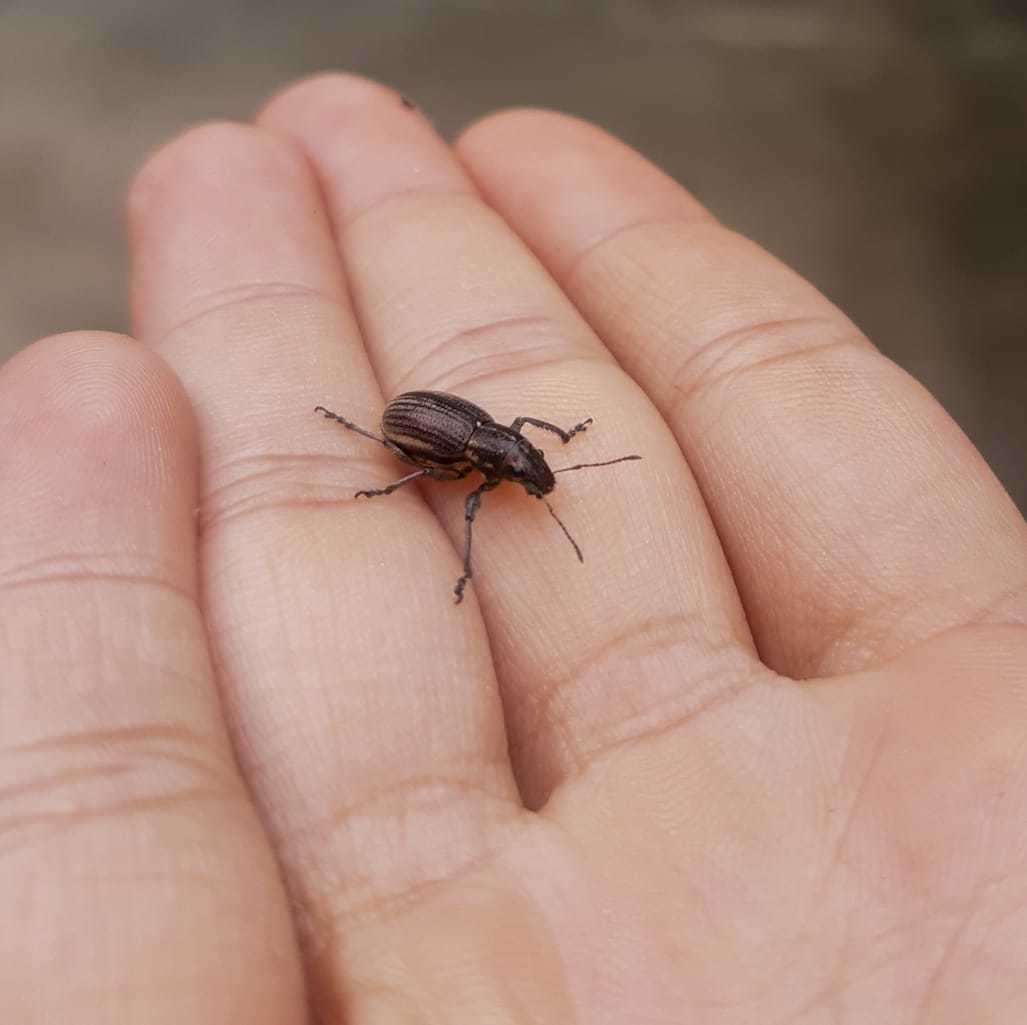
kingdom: Animalia
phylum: Arthropoda
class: Insecta
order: Coleoptera
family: Curculionidae
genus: Naupactus
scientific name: Naupactus tremolerasi
